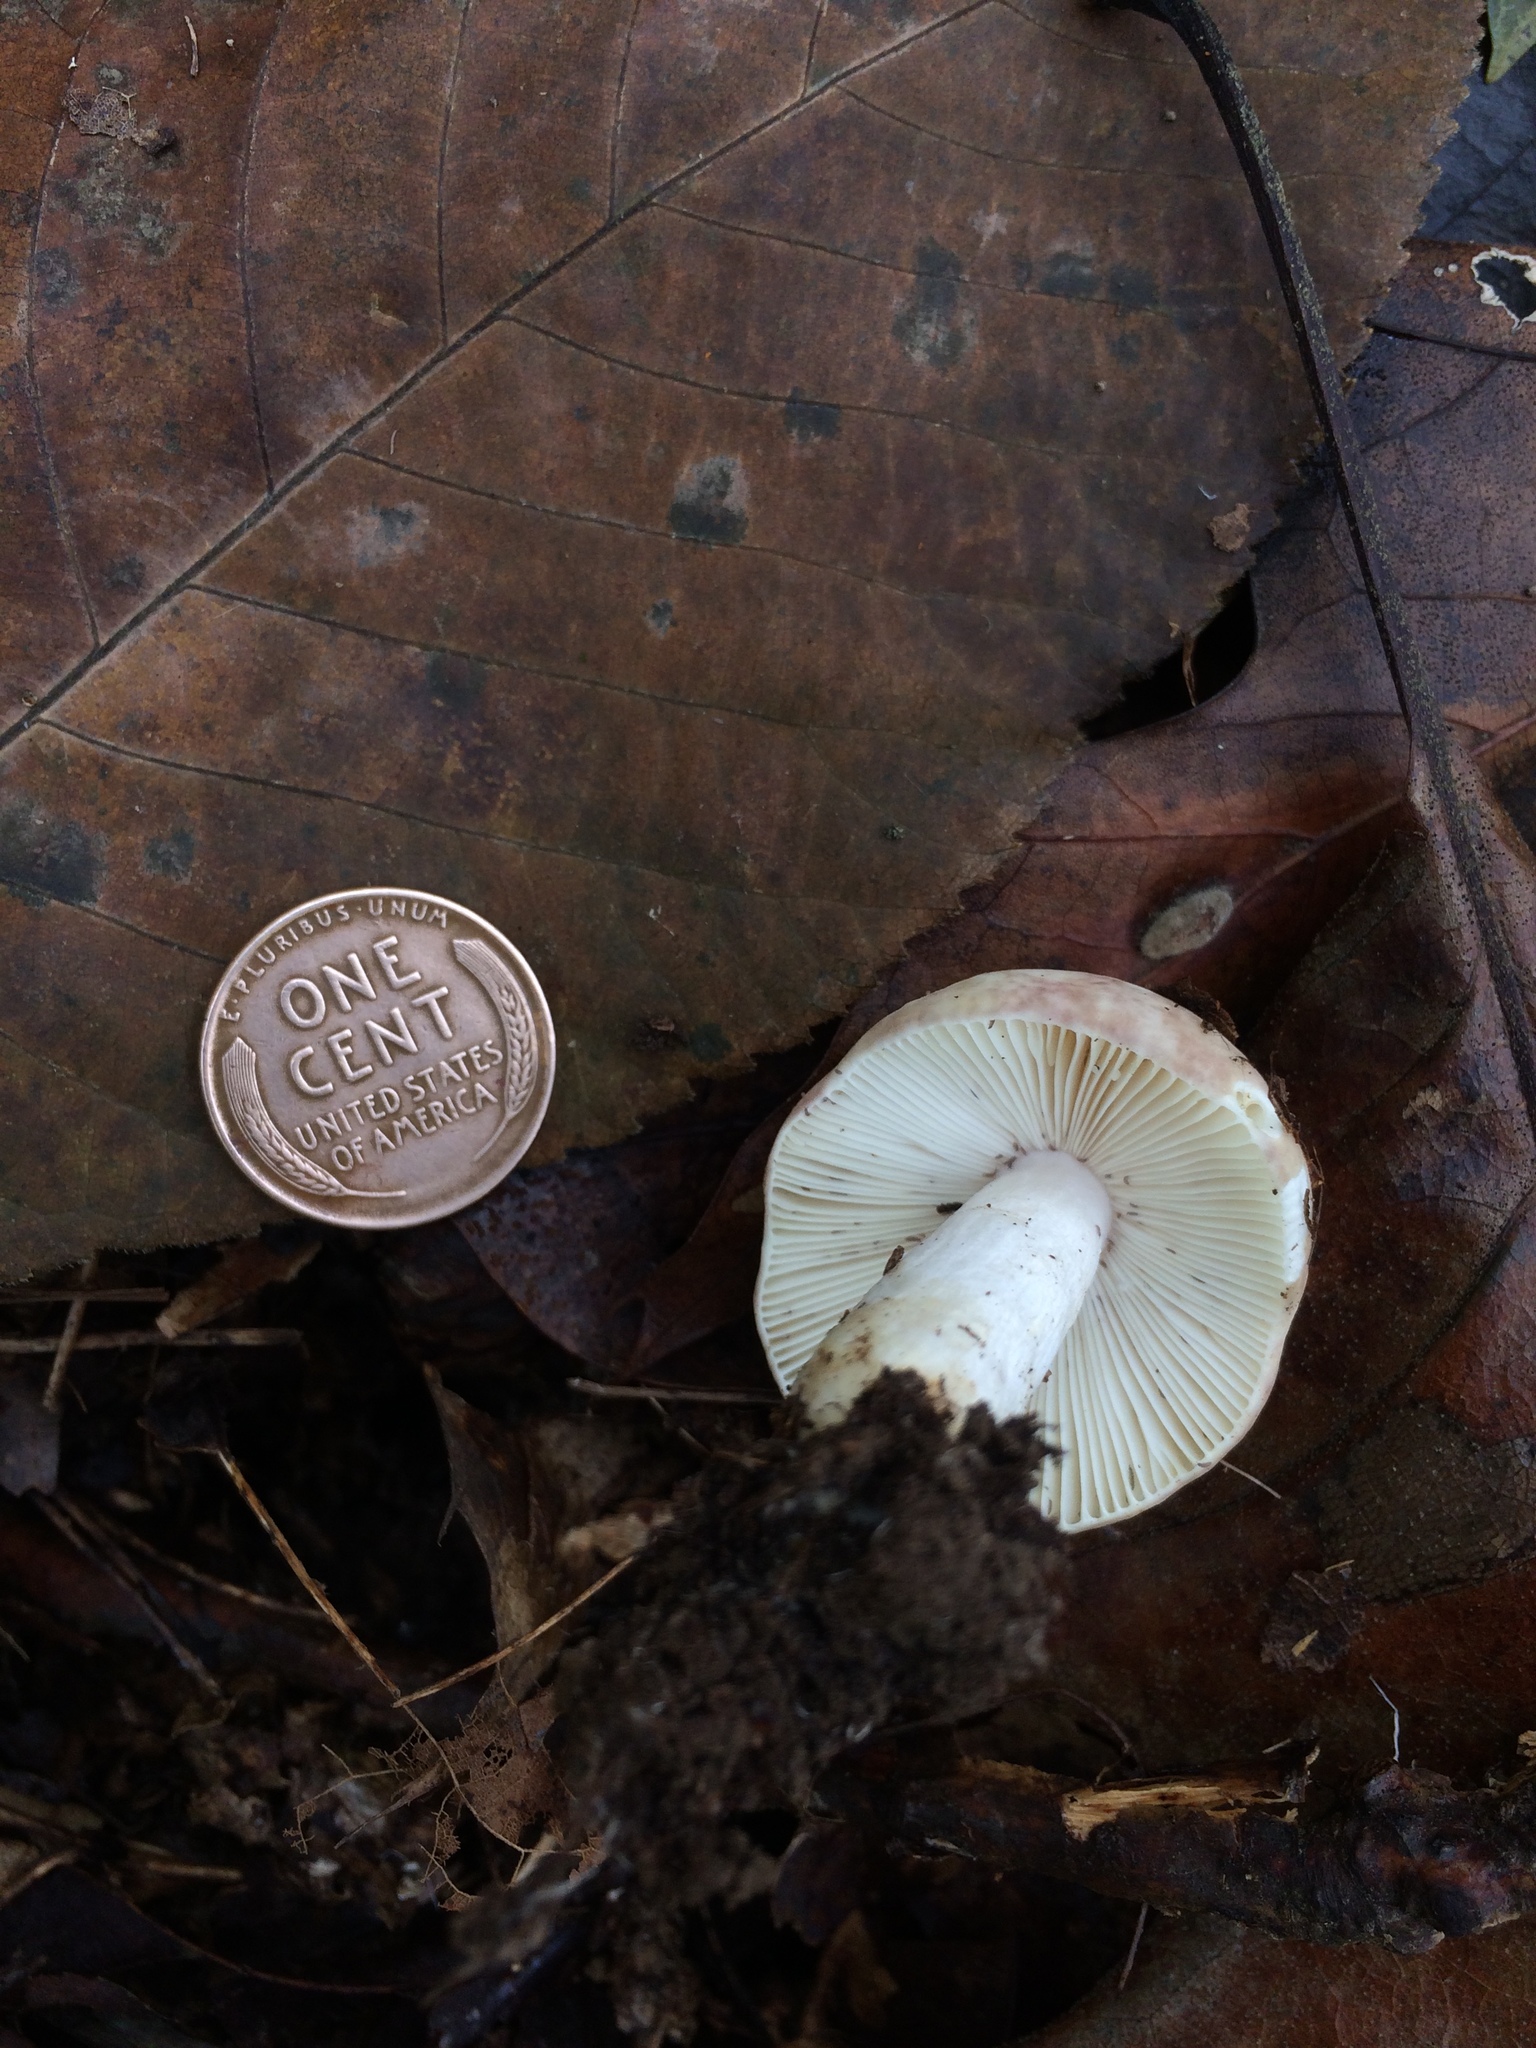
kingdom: Fungi
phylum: Basidiomycota
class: Agaricomycetes
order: Russulales
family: Russulaceae
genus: Russula
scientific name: Russula cyanoxantha
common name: Charcoal burner
